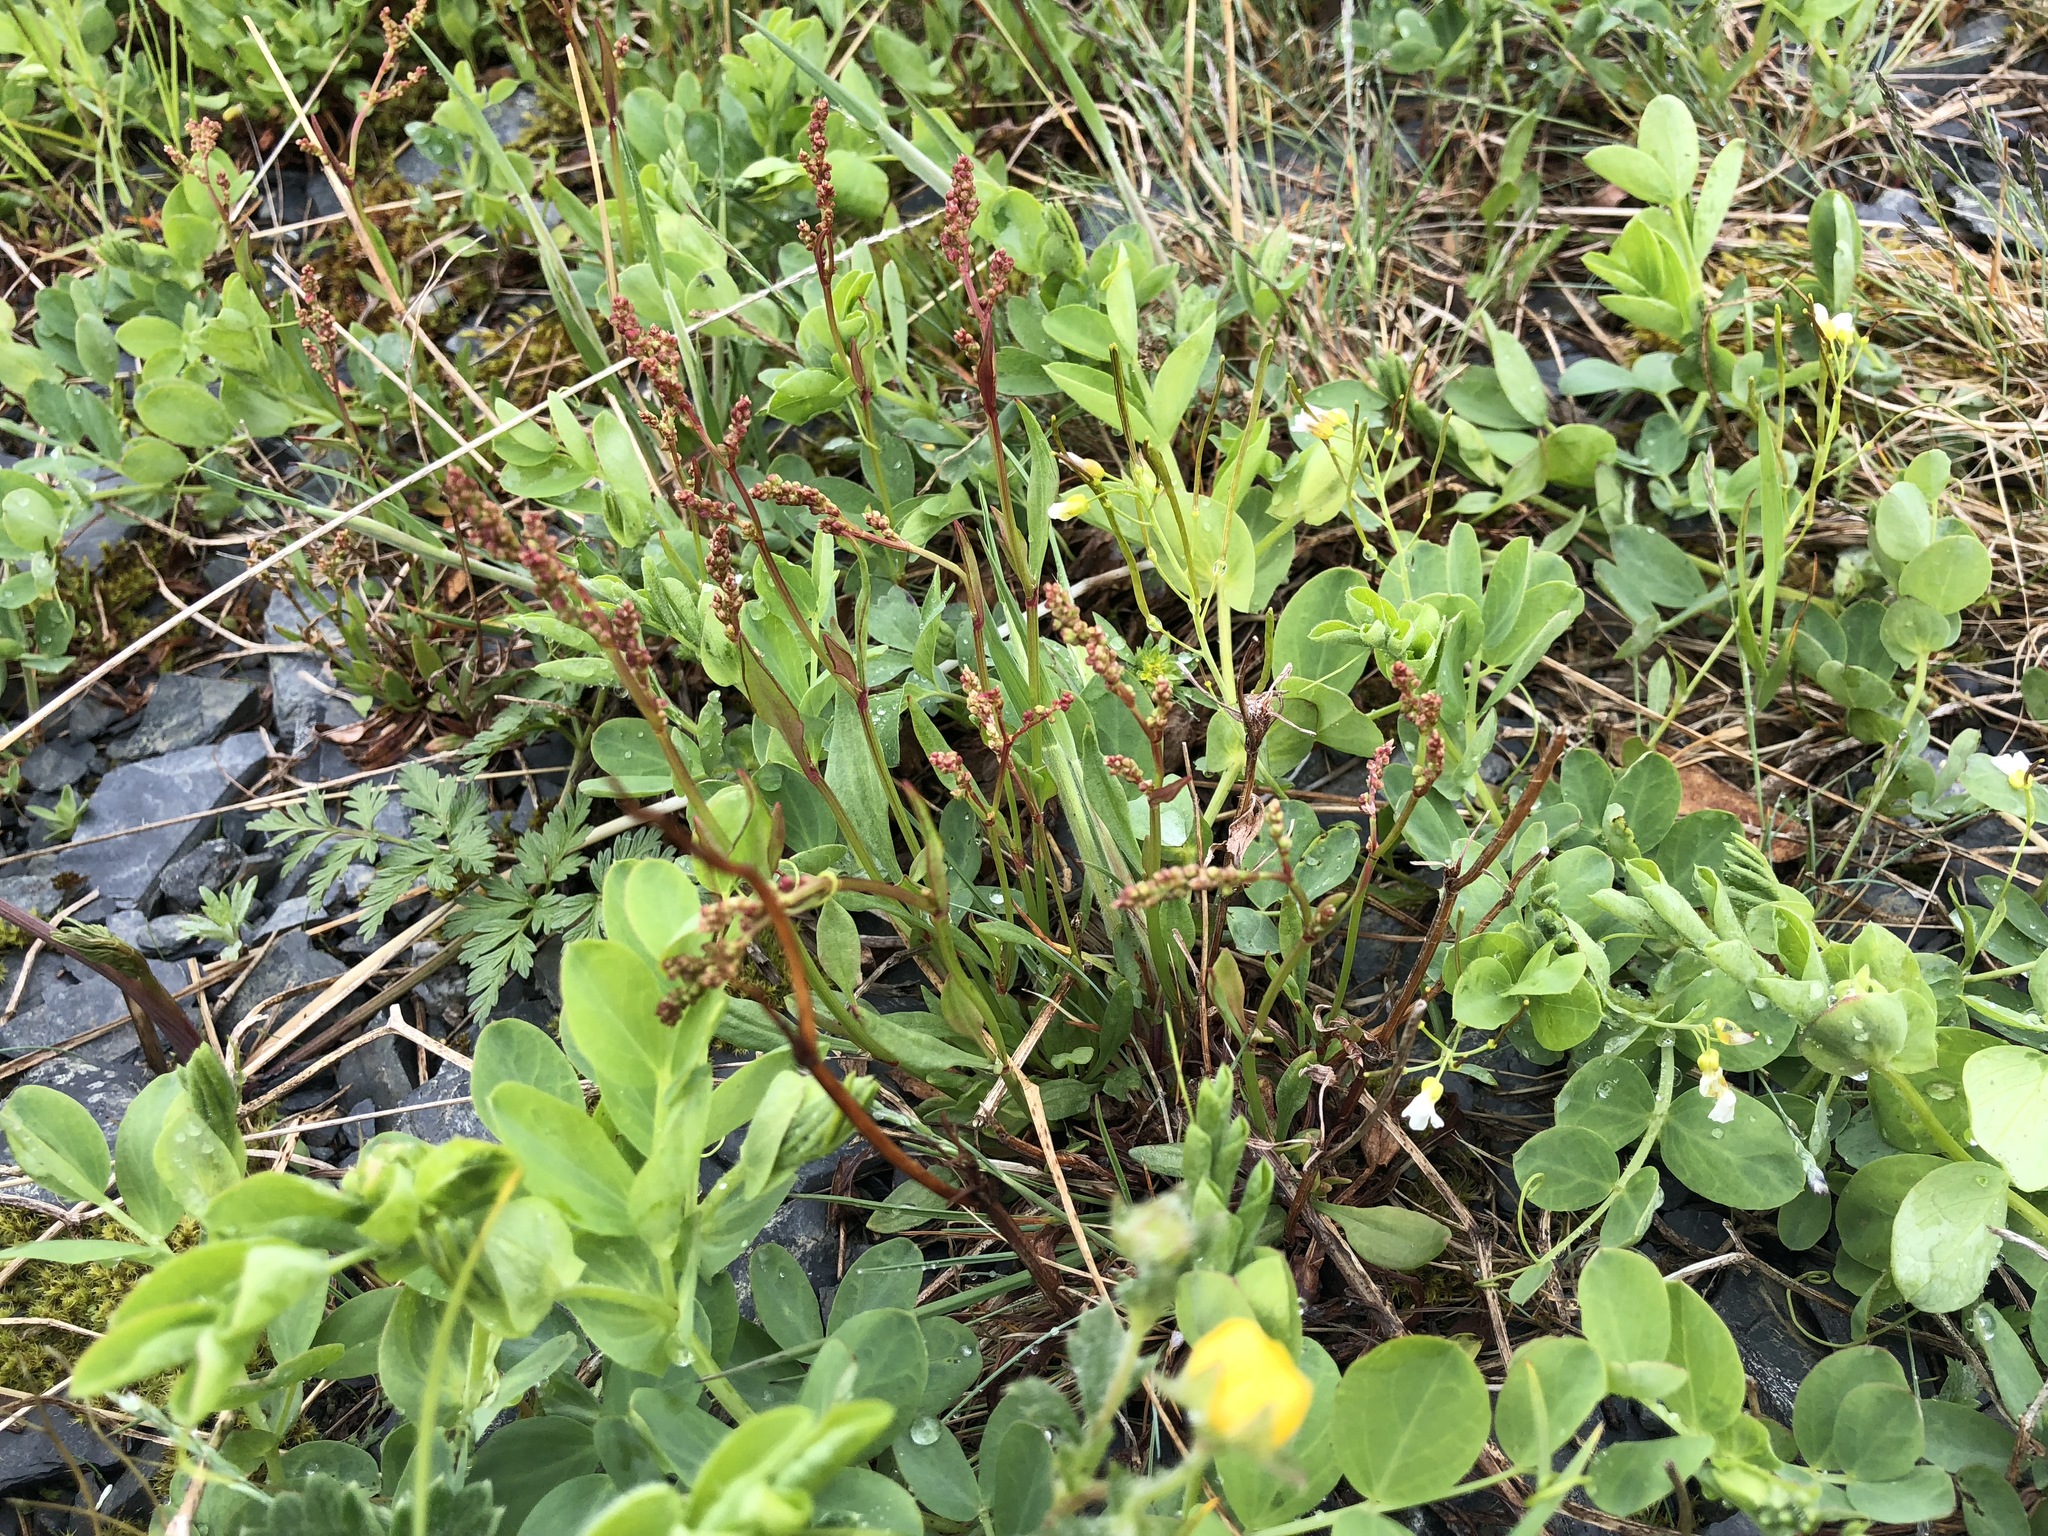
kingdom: Plantae
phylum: Tracheophyta
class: Magnoliopsida
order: Caryophyllales
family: Polygonaceae
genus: Rumex
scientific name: Rumex acetosella
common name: Common sheep sorrel
